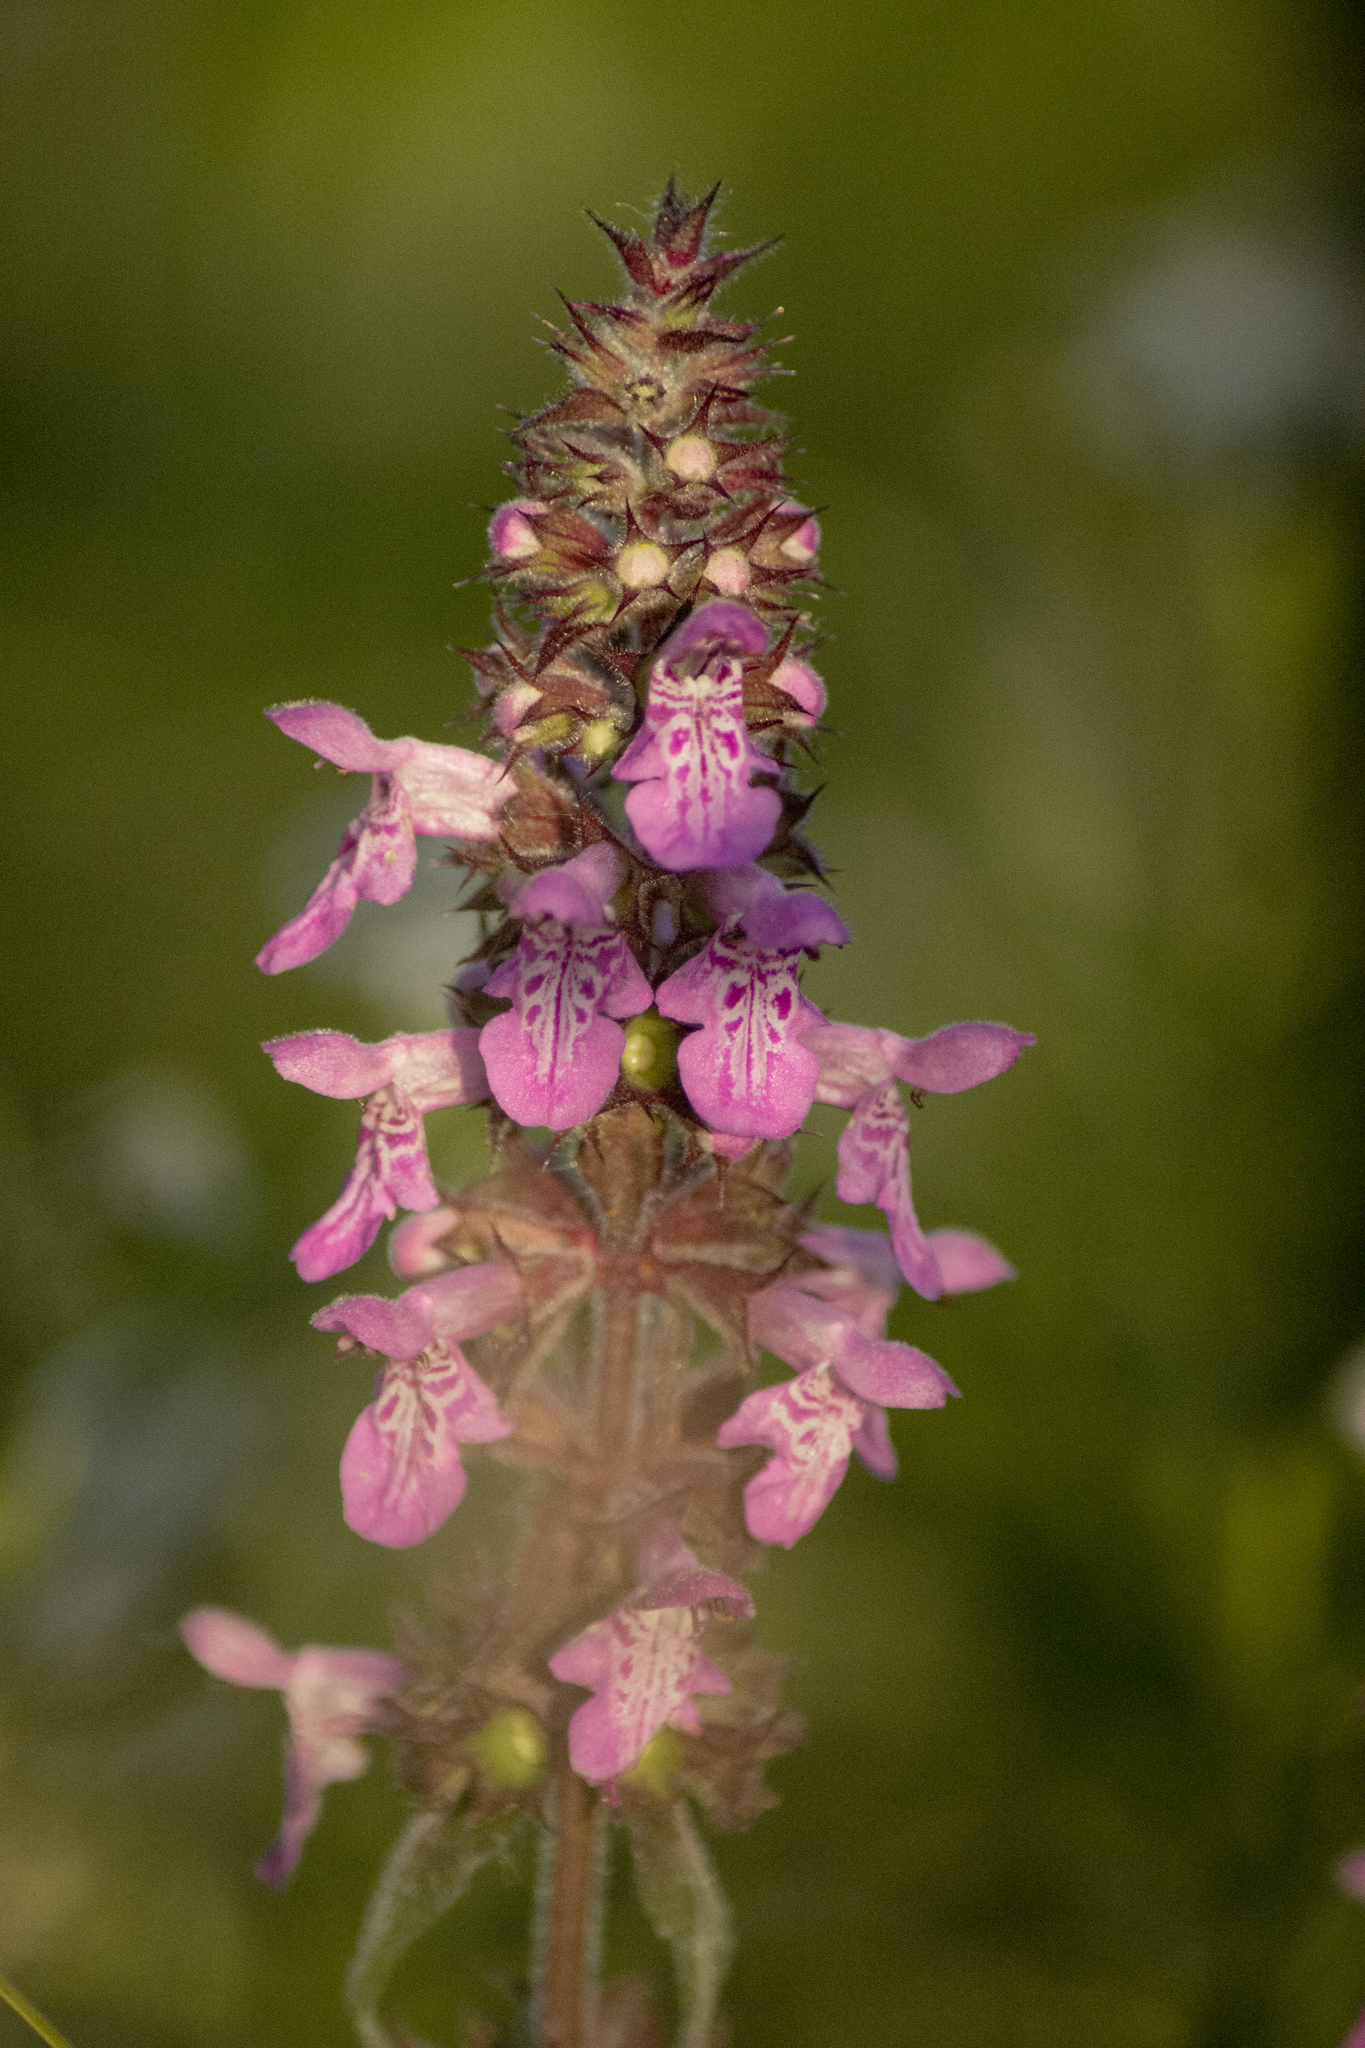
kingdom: Plantae
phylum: Tracheophyta
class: Magnoliopsida
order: Lamiales
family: Lamiaceae
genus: Stachys
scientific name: Stachys palustris
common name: Marsh woundwort
